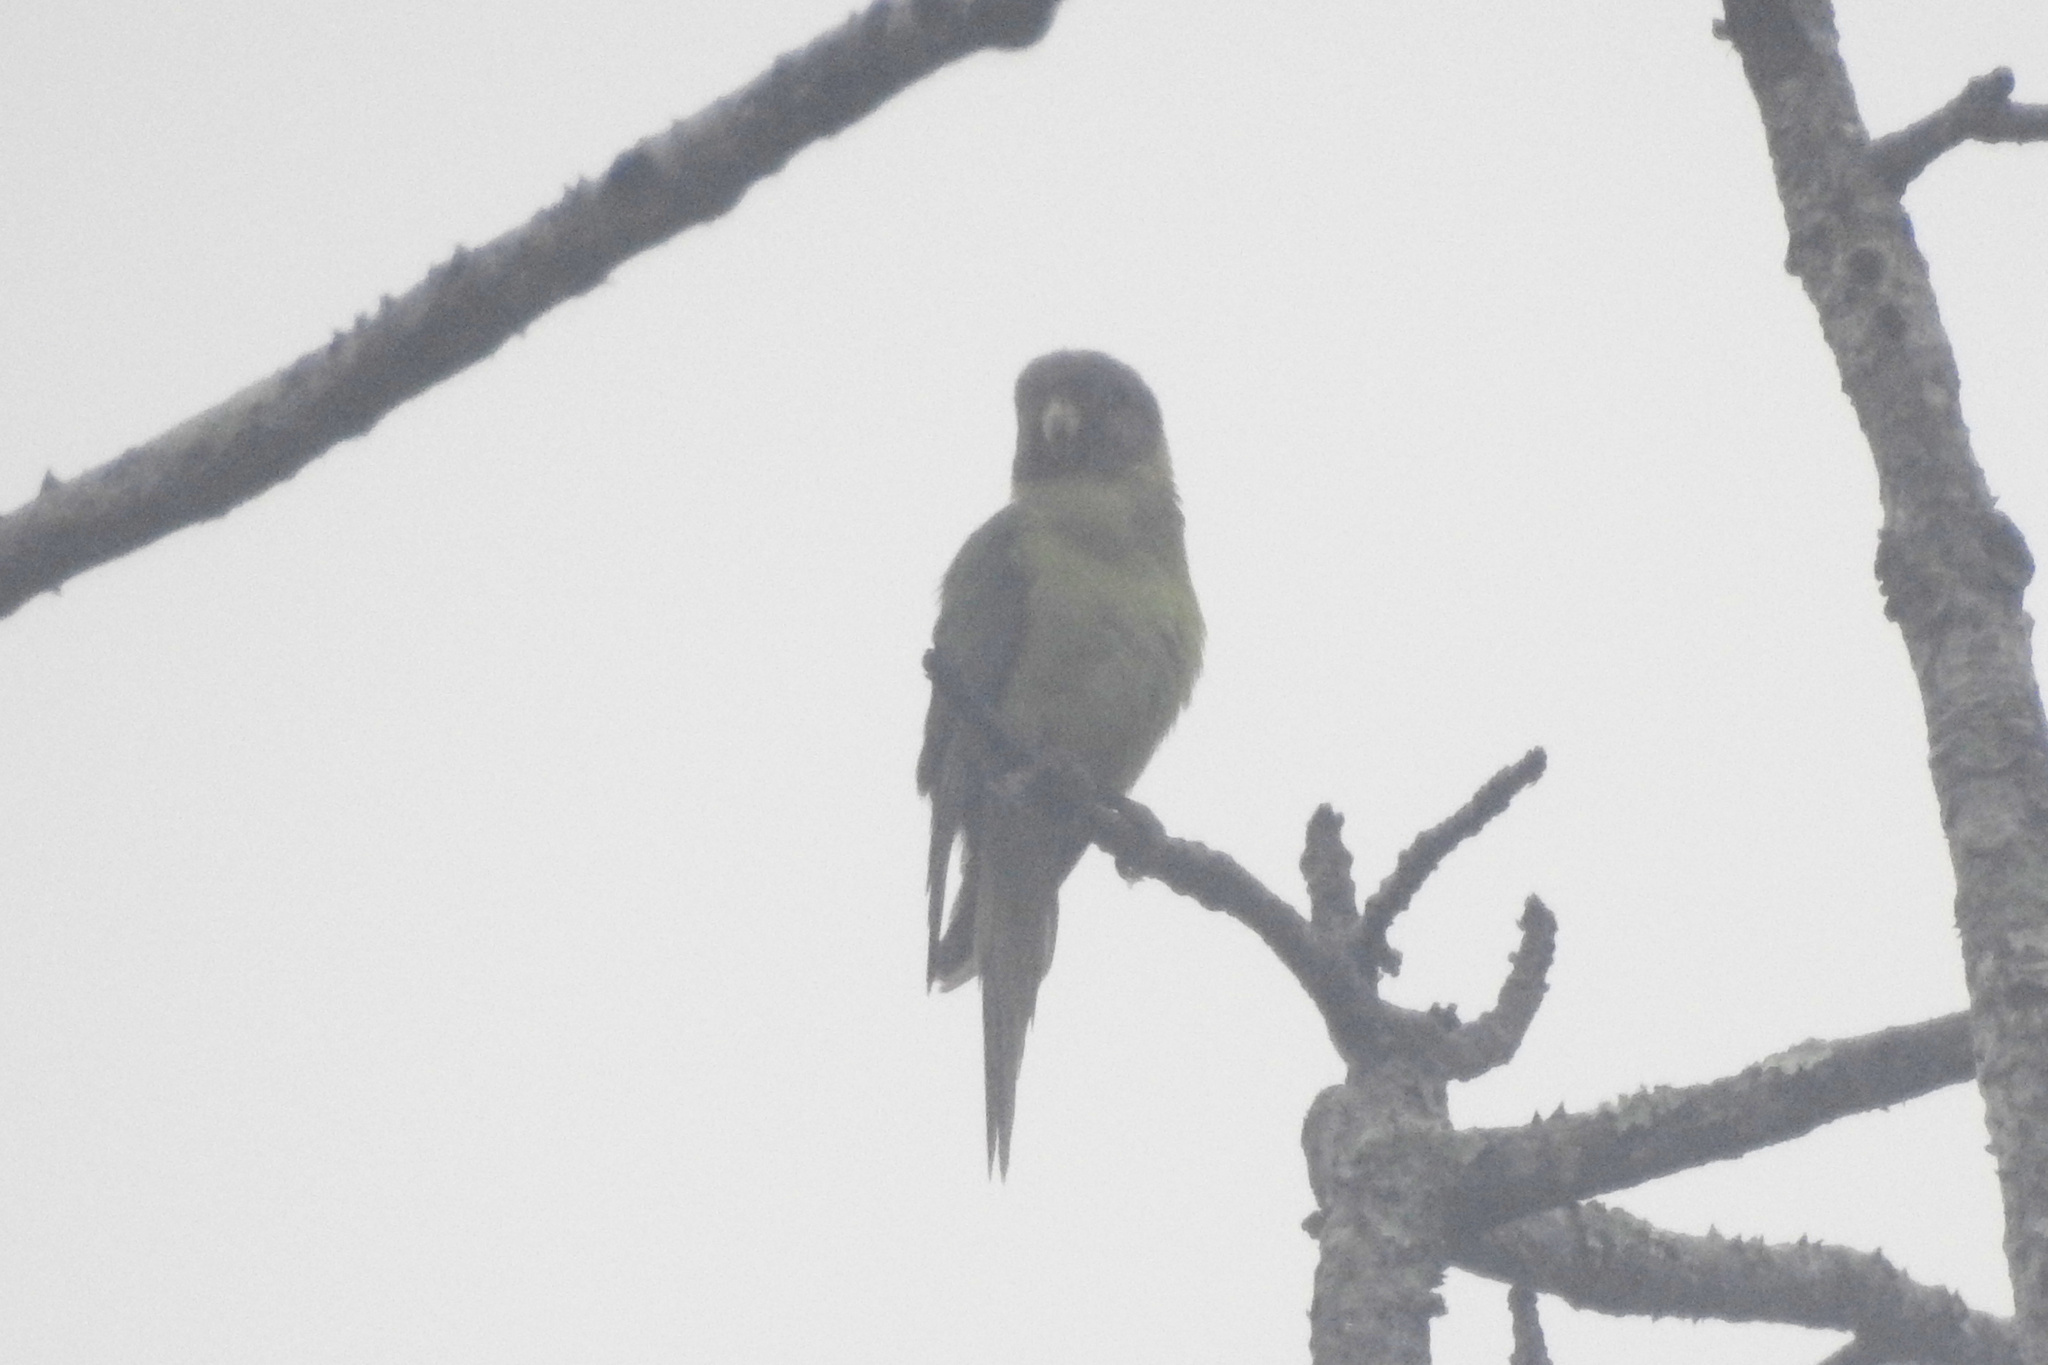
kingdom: Animalia
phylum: Chordata
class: Aves
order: Psittaciformes
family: Psittacidae
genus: Psittacula
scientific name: Psittacula cyanocephala
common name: Plum-headed parakeet
